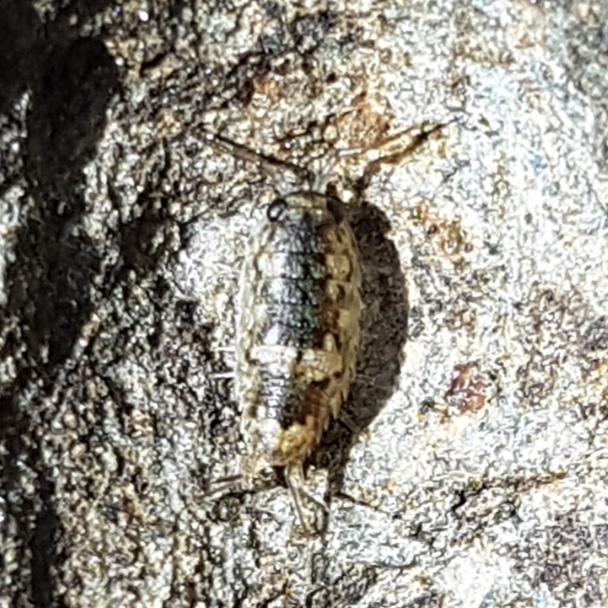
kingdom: Animalia
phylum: Arthropoda
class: Malacostraca
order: Isopoda
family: Ligiidae
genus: Ligia
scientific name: Ligia oceanica
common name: Sea slater
